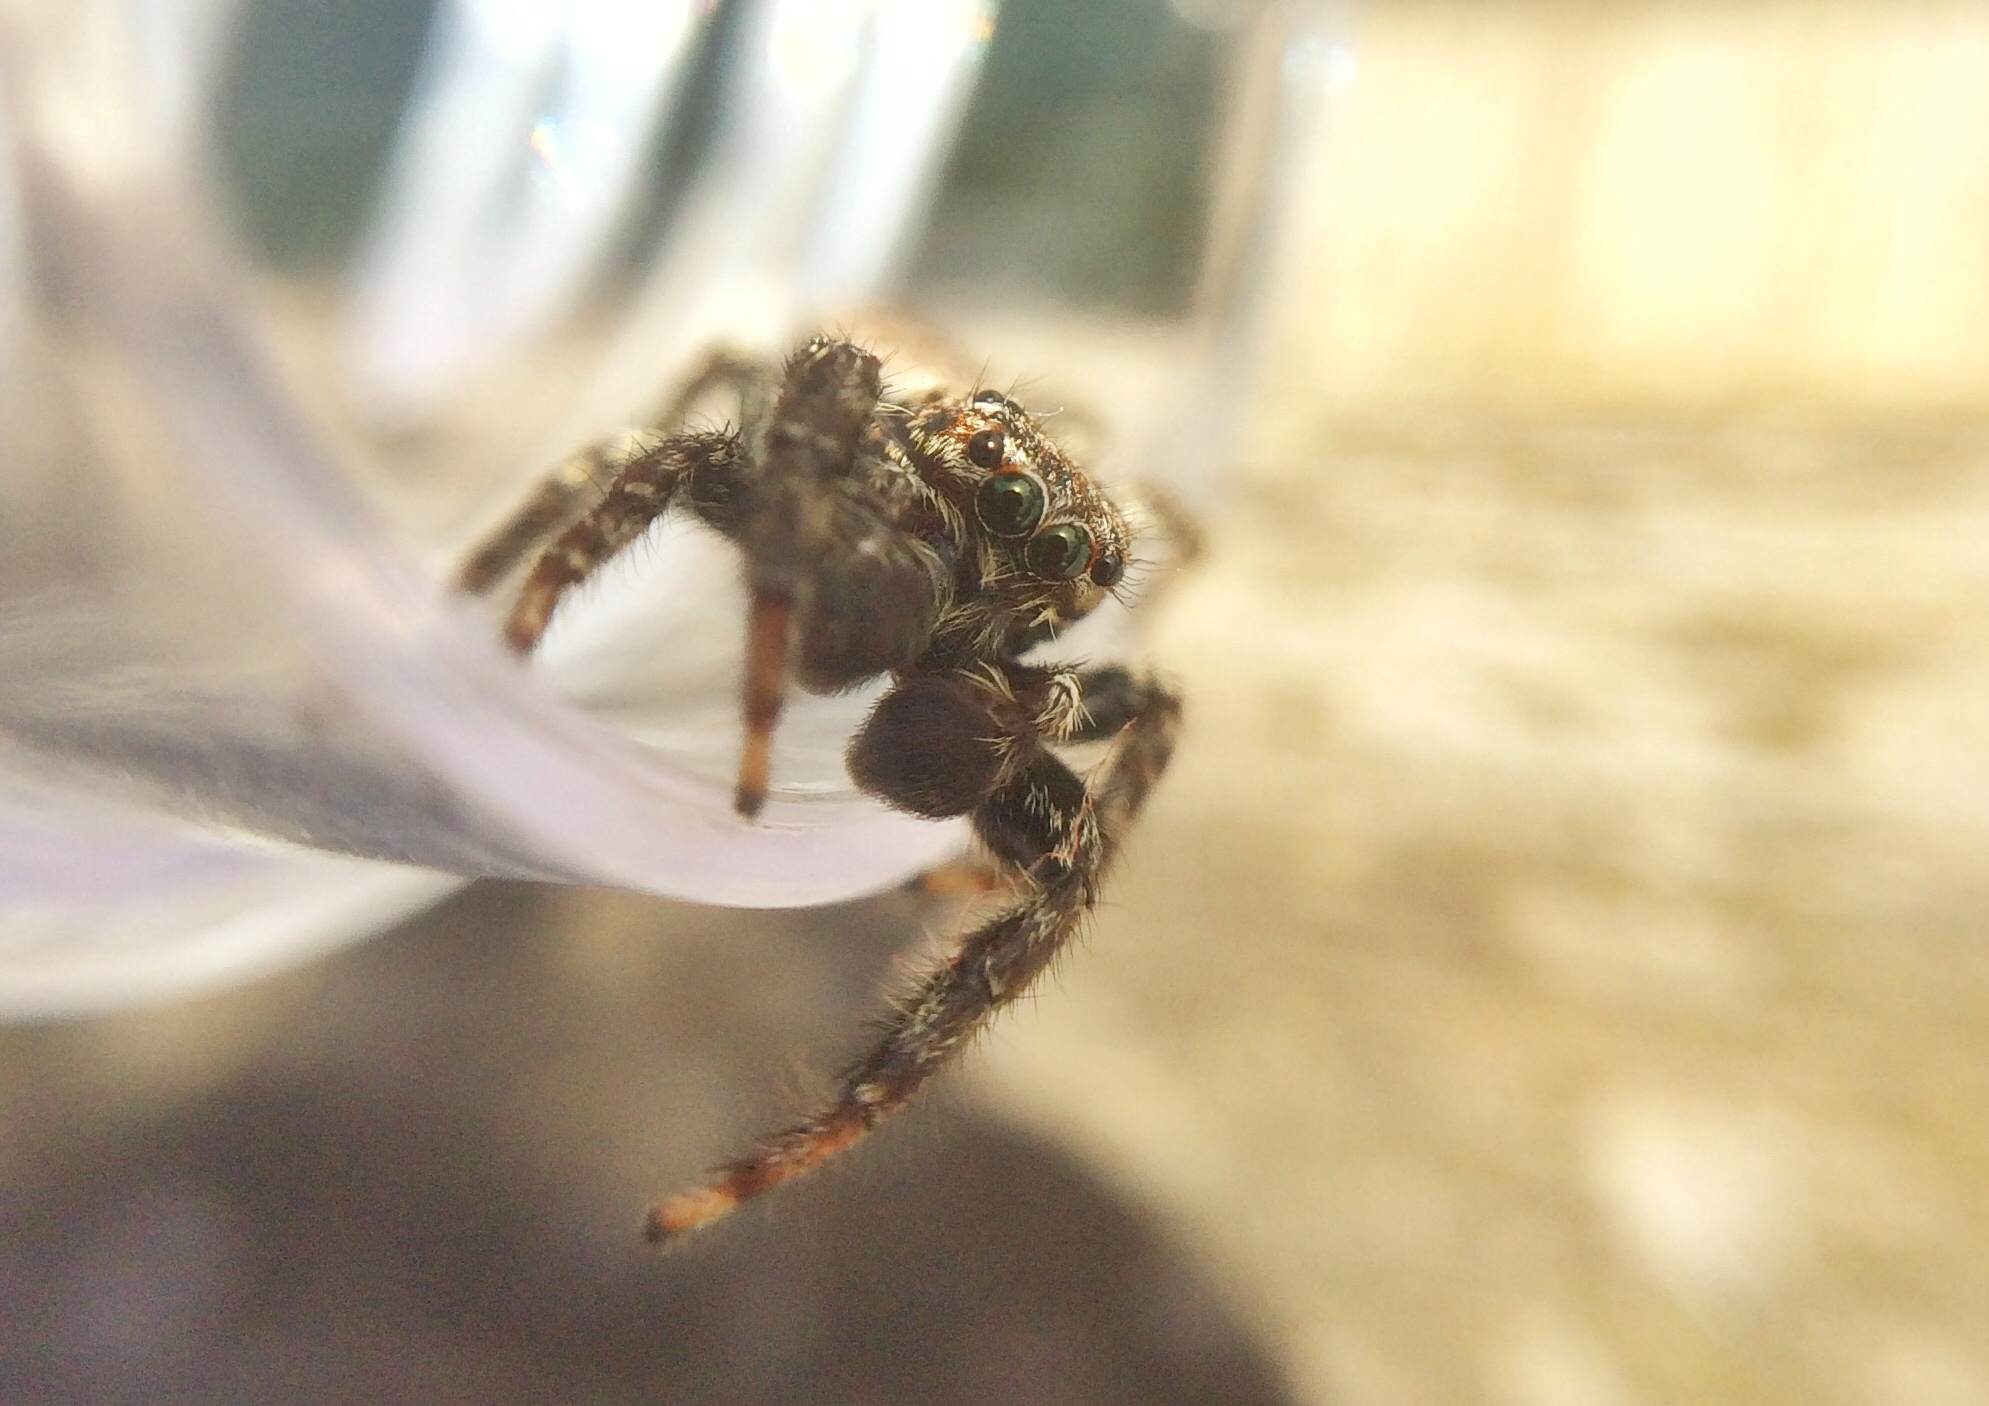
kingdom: Animalia
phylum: Arthropoda
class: Arachnida
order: Araneae
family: Salticidae
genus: Marpissa
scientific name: Marpissa muscosa
